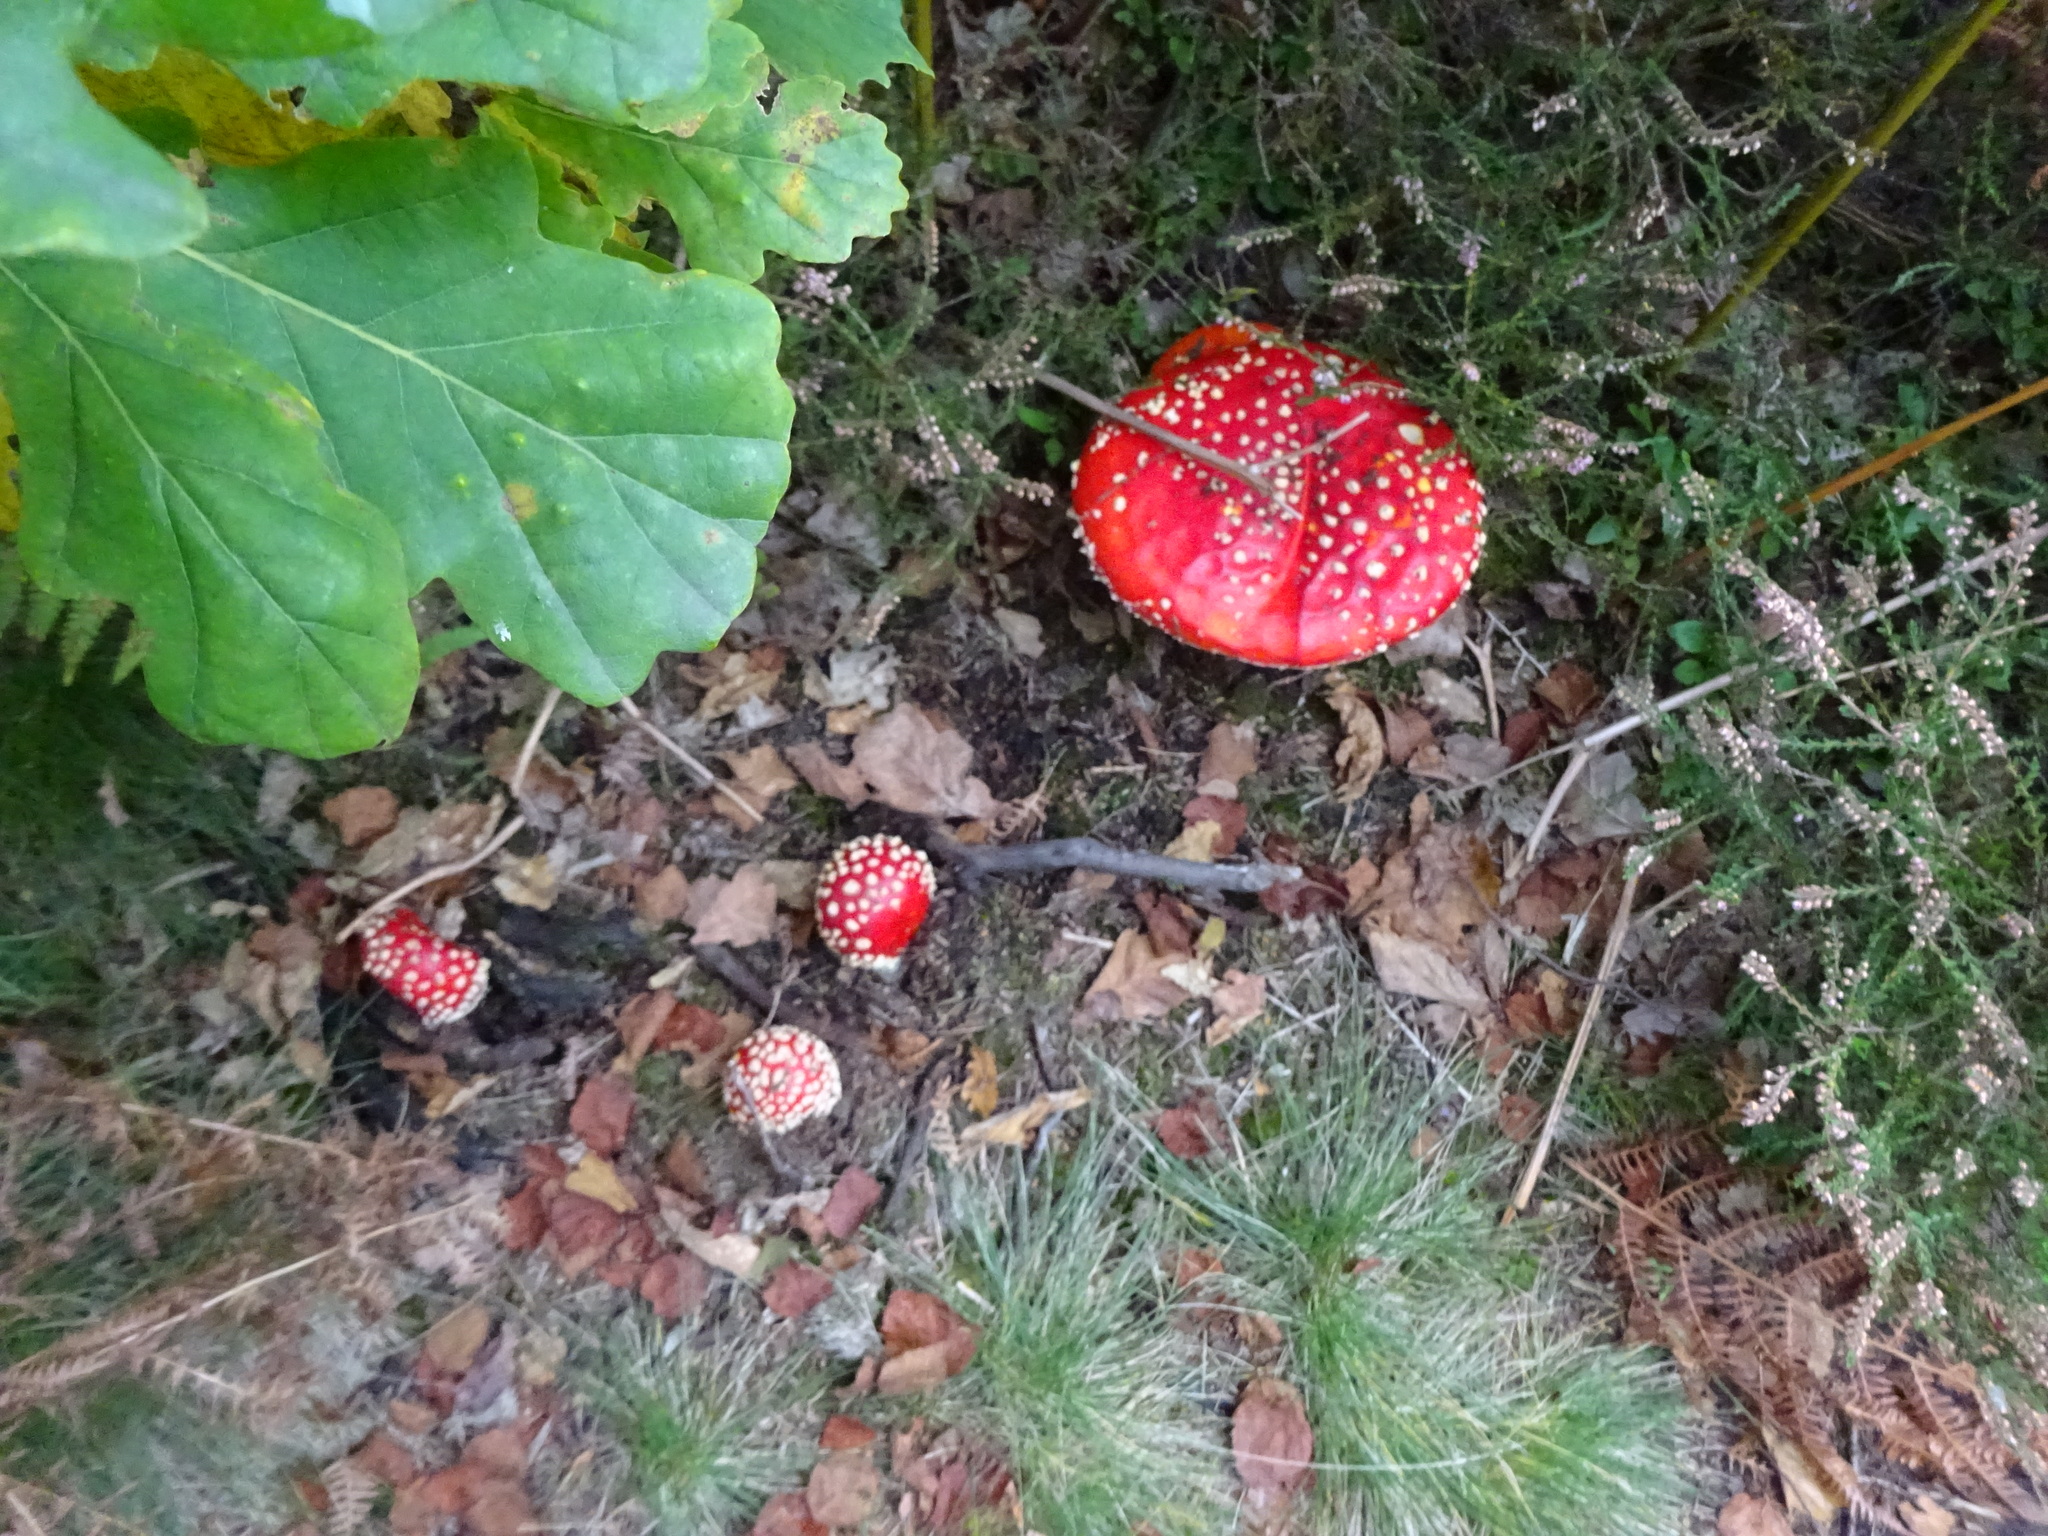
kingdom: Fungi
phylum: Basidiomycota
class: Agaricomycetes
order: Agaricales
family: Amanitaceae
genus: Amanita
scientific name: Amanita muscaria
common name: Fly agaric
